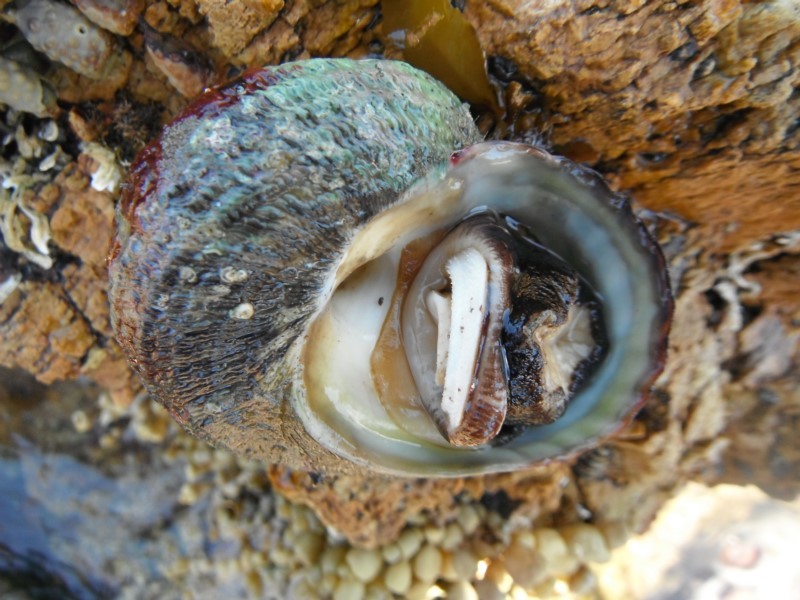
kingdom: Animalia
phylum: Mollusca
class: Gastropoda
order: Trochida
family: Turbinidae
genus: Lunella
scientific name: Lunella torquata
